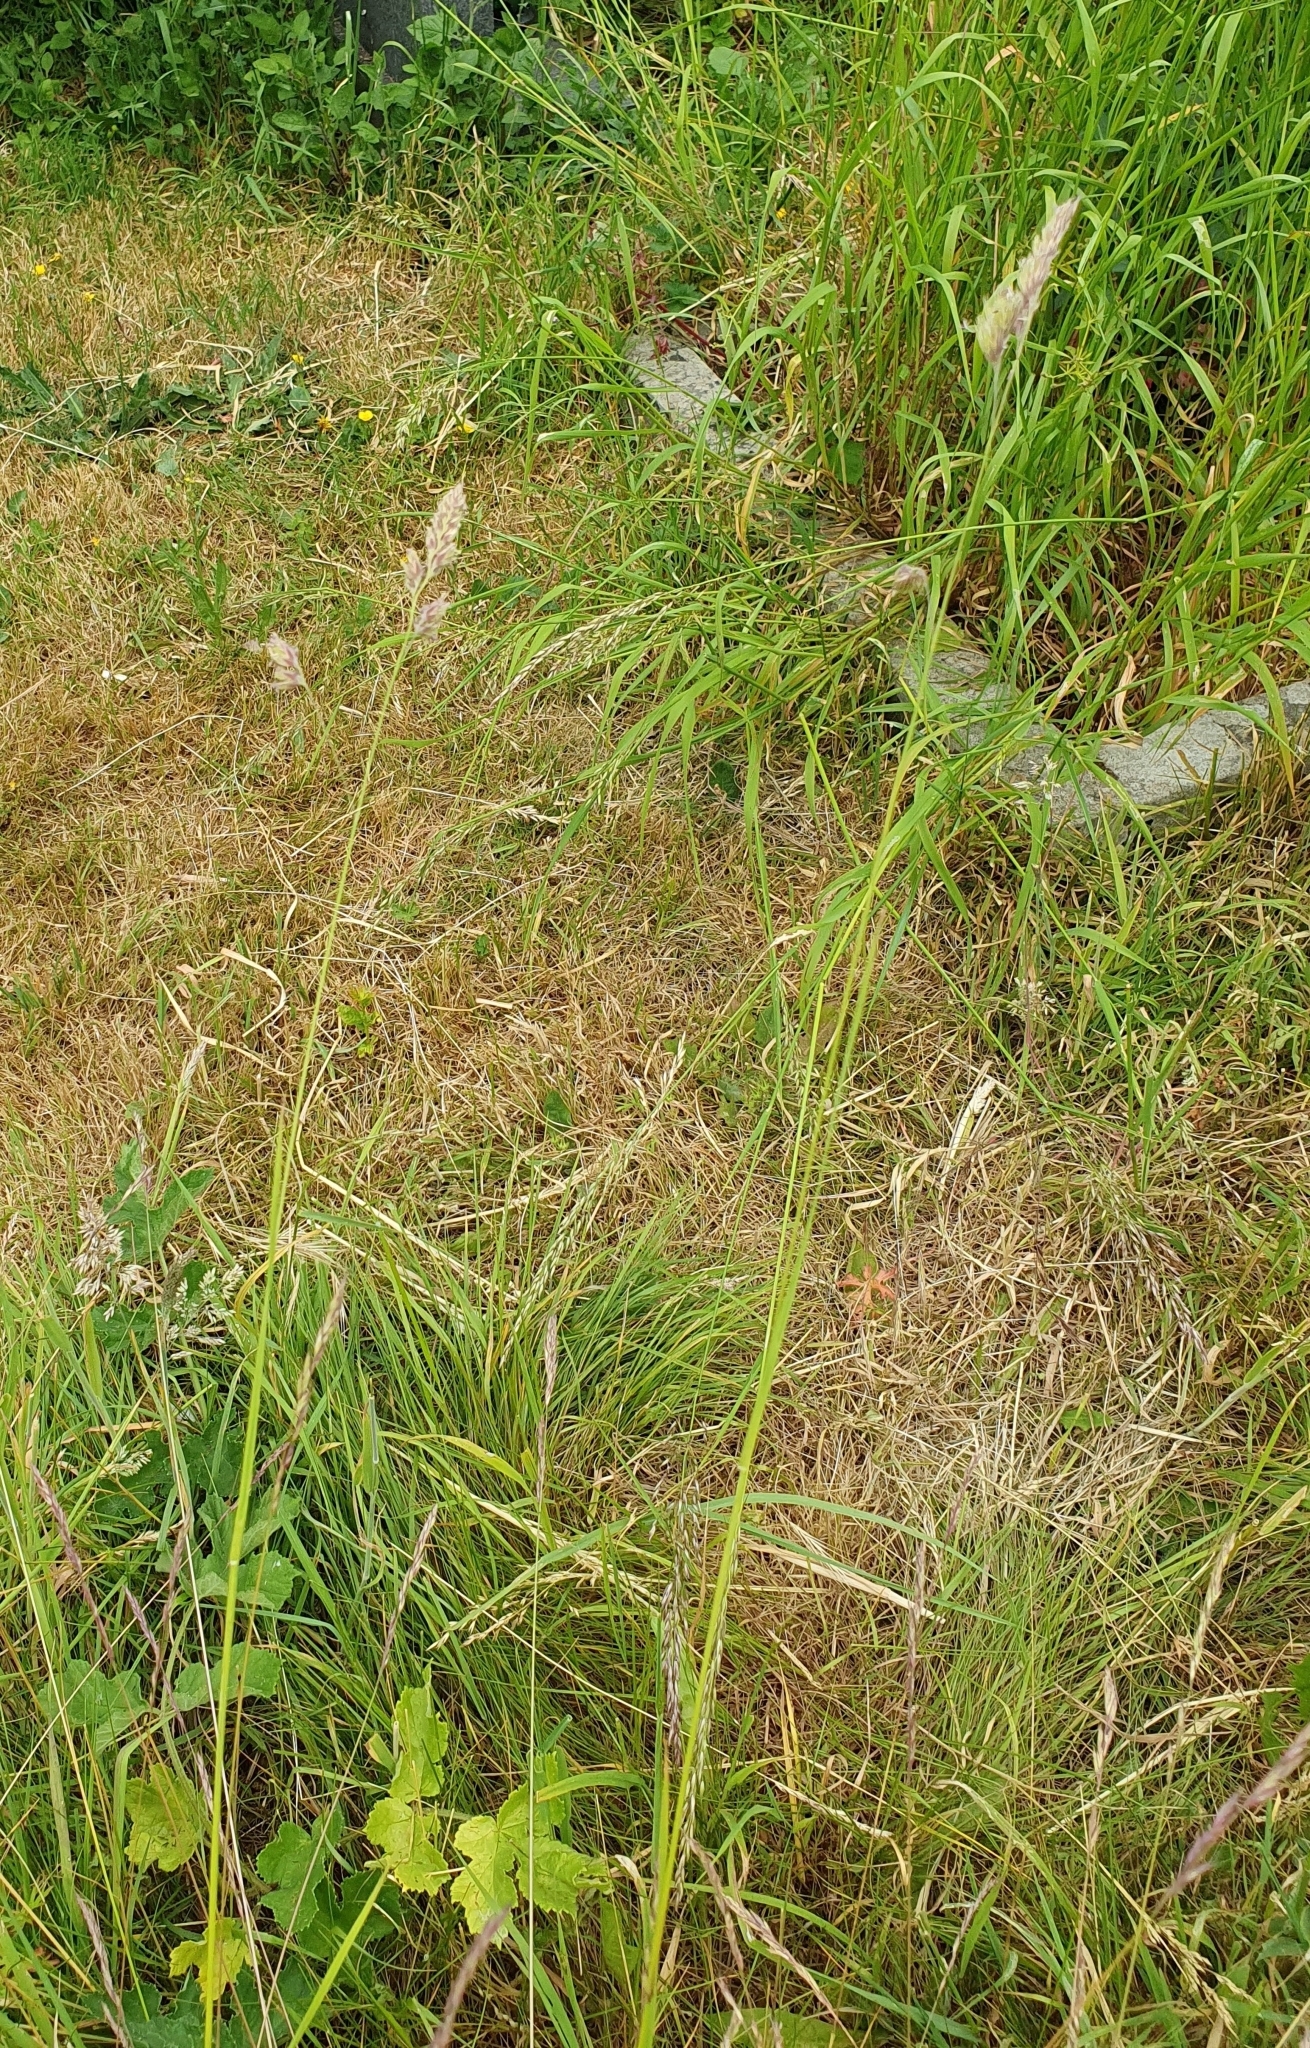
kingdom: Plantae
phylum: Tracheophyta
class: Liliopsida
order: Poales
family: Poaceae
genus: Dactylis
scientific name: Dactylis glomerata
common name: Orchardgrass
